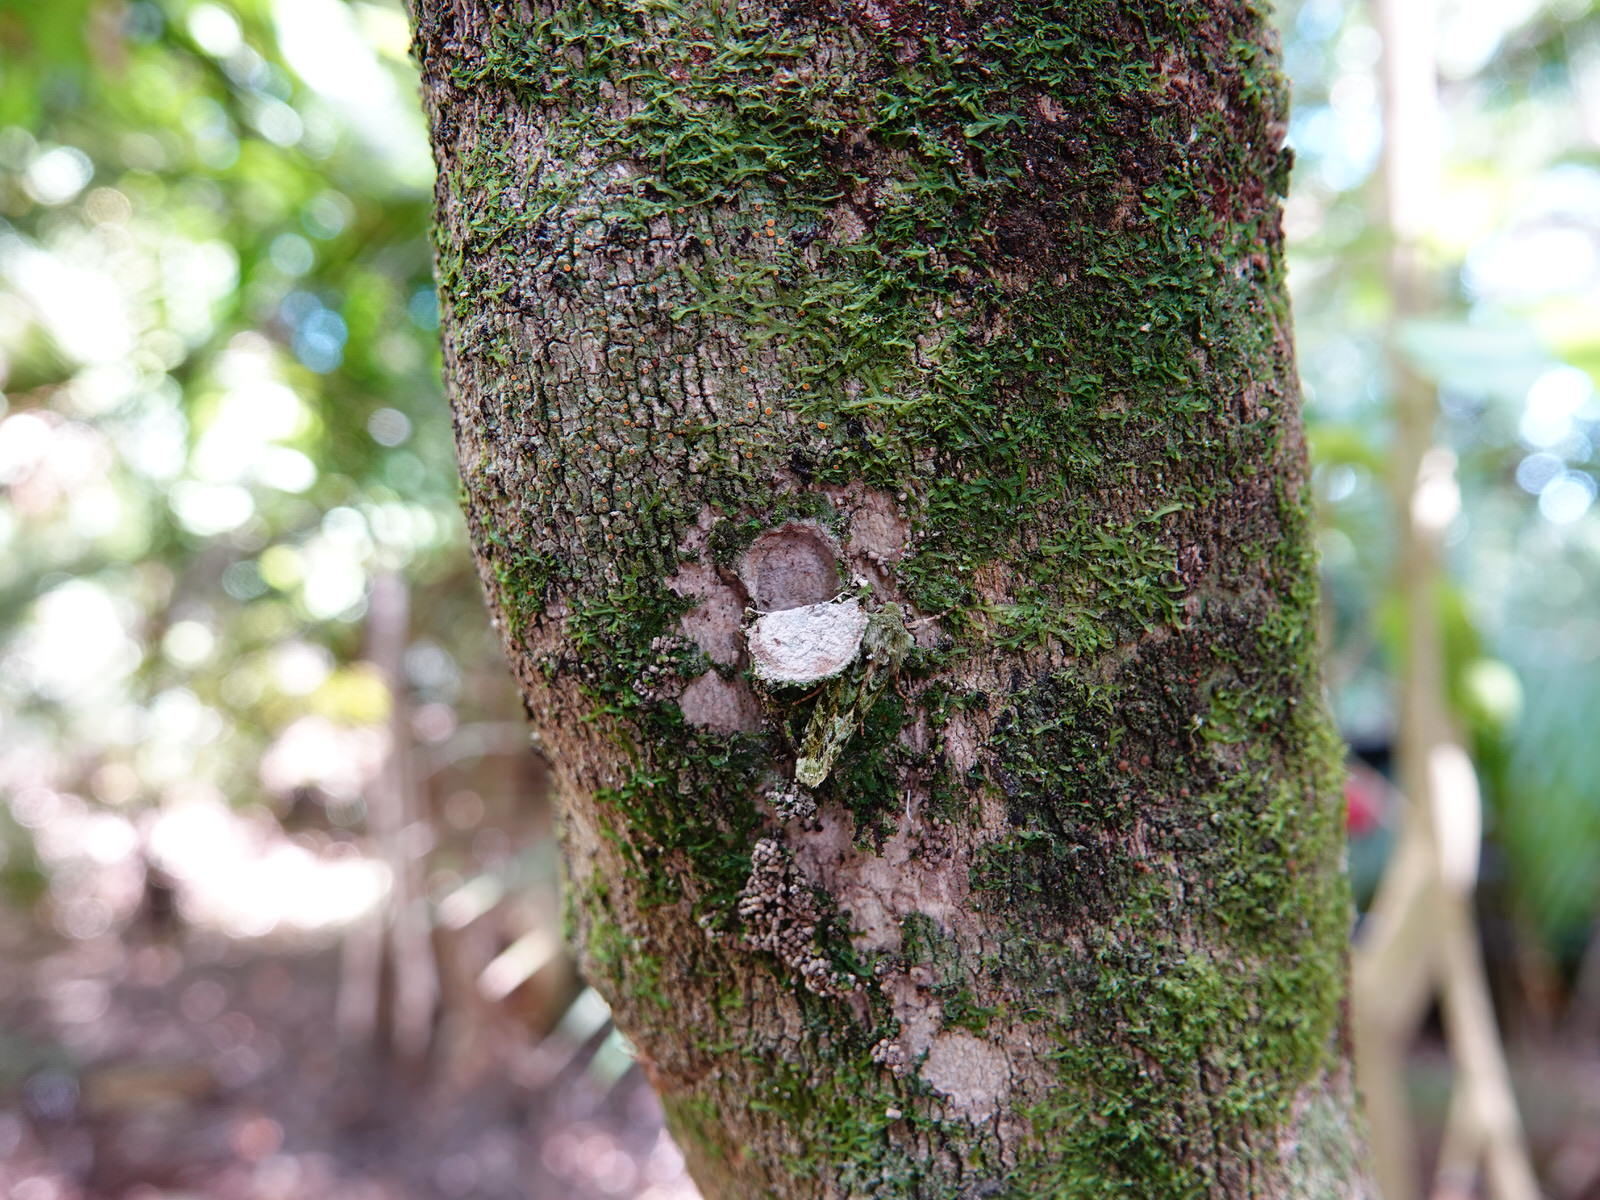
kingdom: Animalia
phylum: Arthropoda
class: Insecta
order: Lepidoptera
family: Noctuidae
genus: Feredayia
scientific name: Feredayia grammosa
